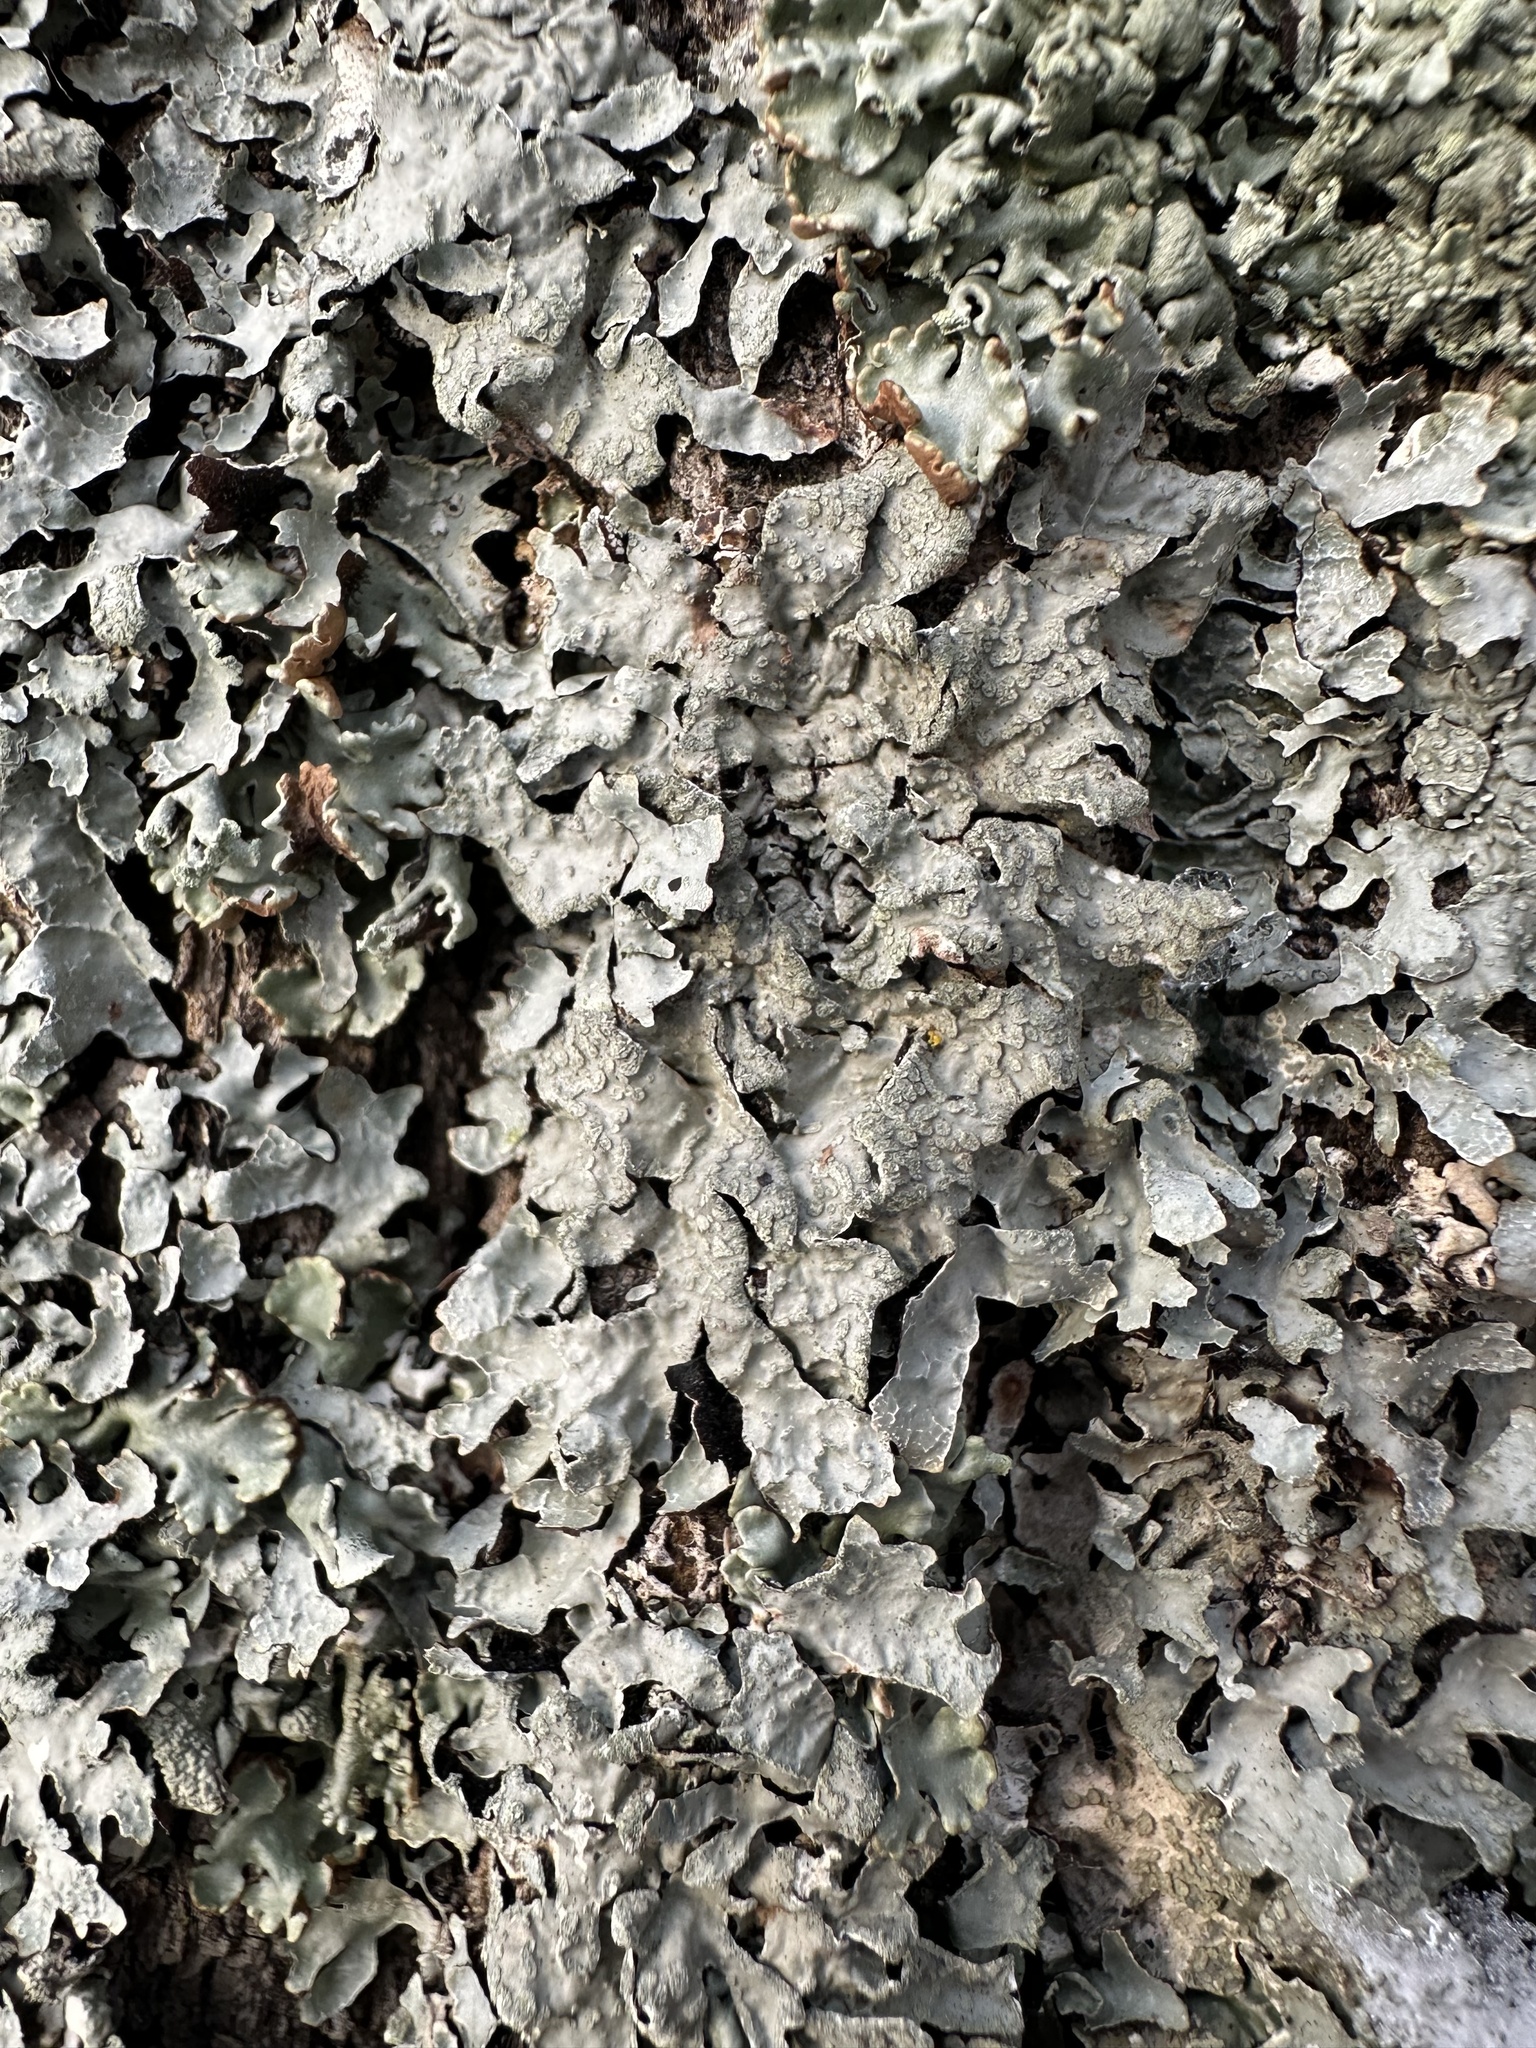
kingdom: Fungi
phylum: Ascomycota
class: Lecanoromycetes
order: Lecanorales
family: Parmeliaceae
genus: Parmelia
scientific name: Parmelia sulcata
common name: Netted shield lichen
